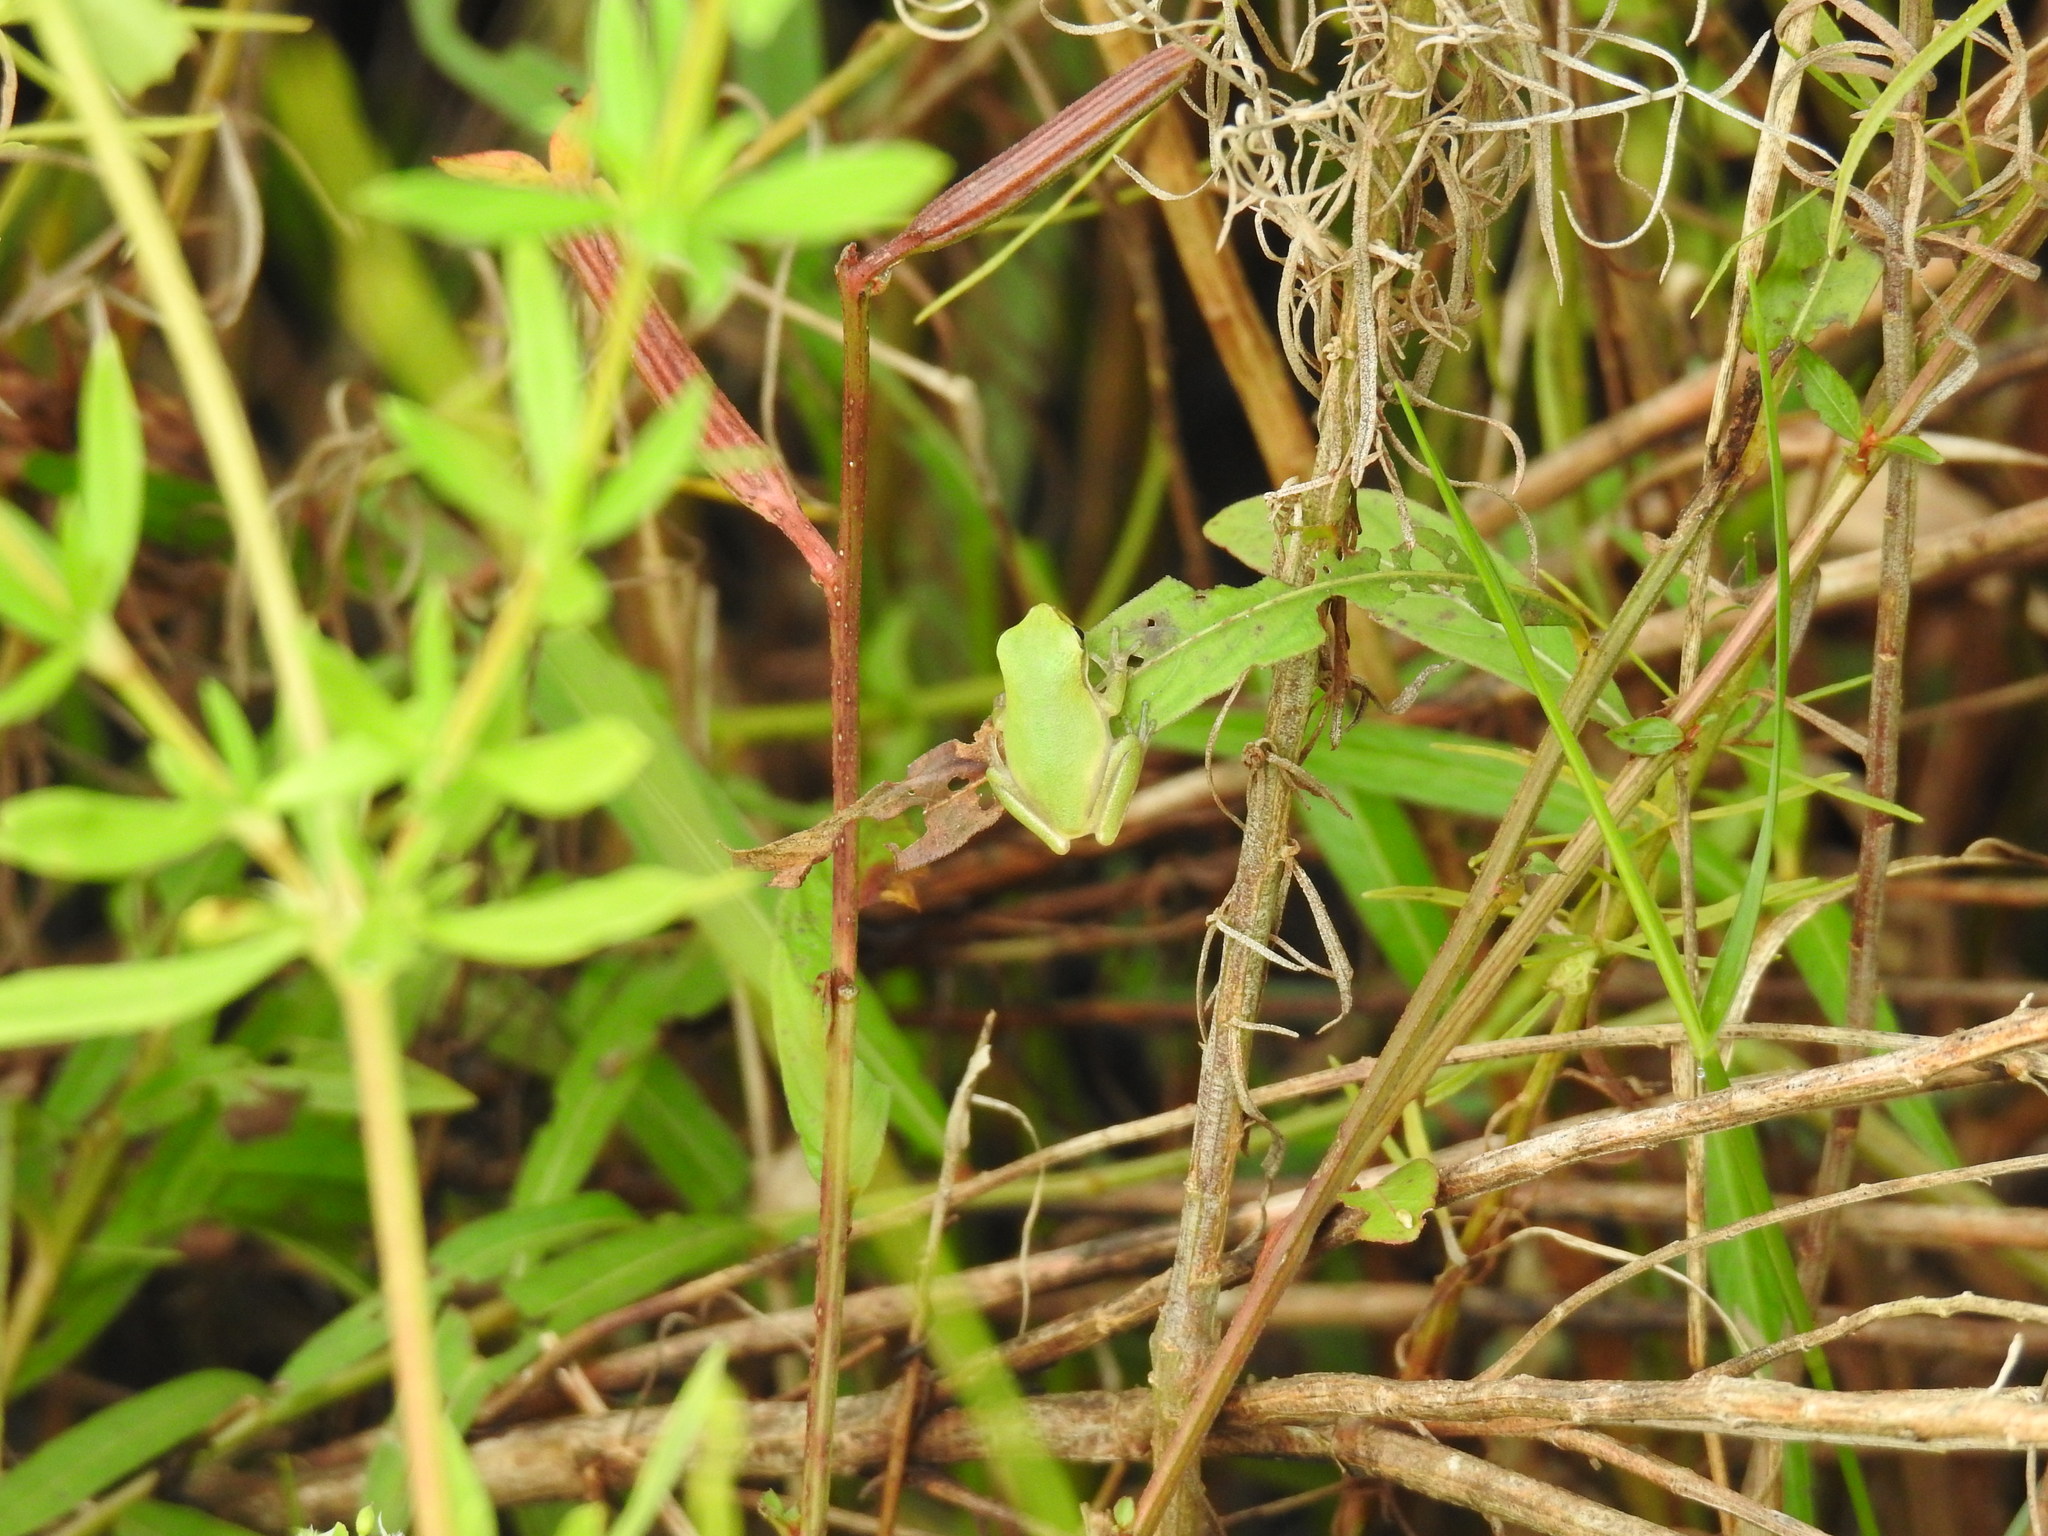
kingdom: Animalia
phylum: Chordata
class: Amphibia
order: Anura
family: Hylidae
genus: Dryophytes
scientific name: Dryophytes squirellus
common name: Squirrel treefrog
